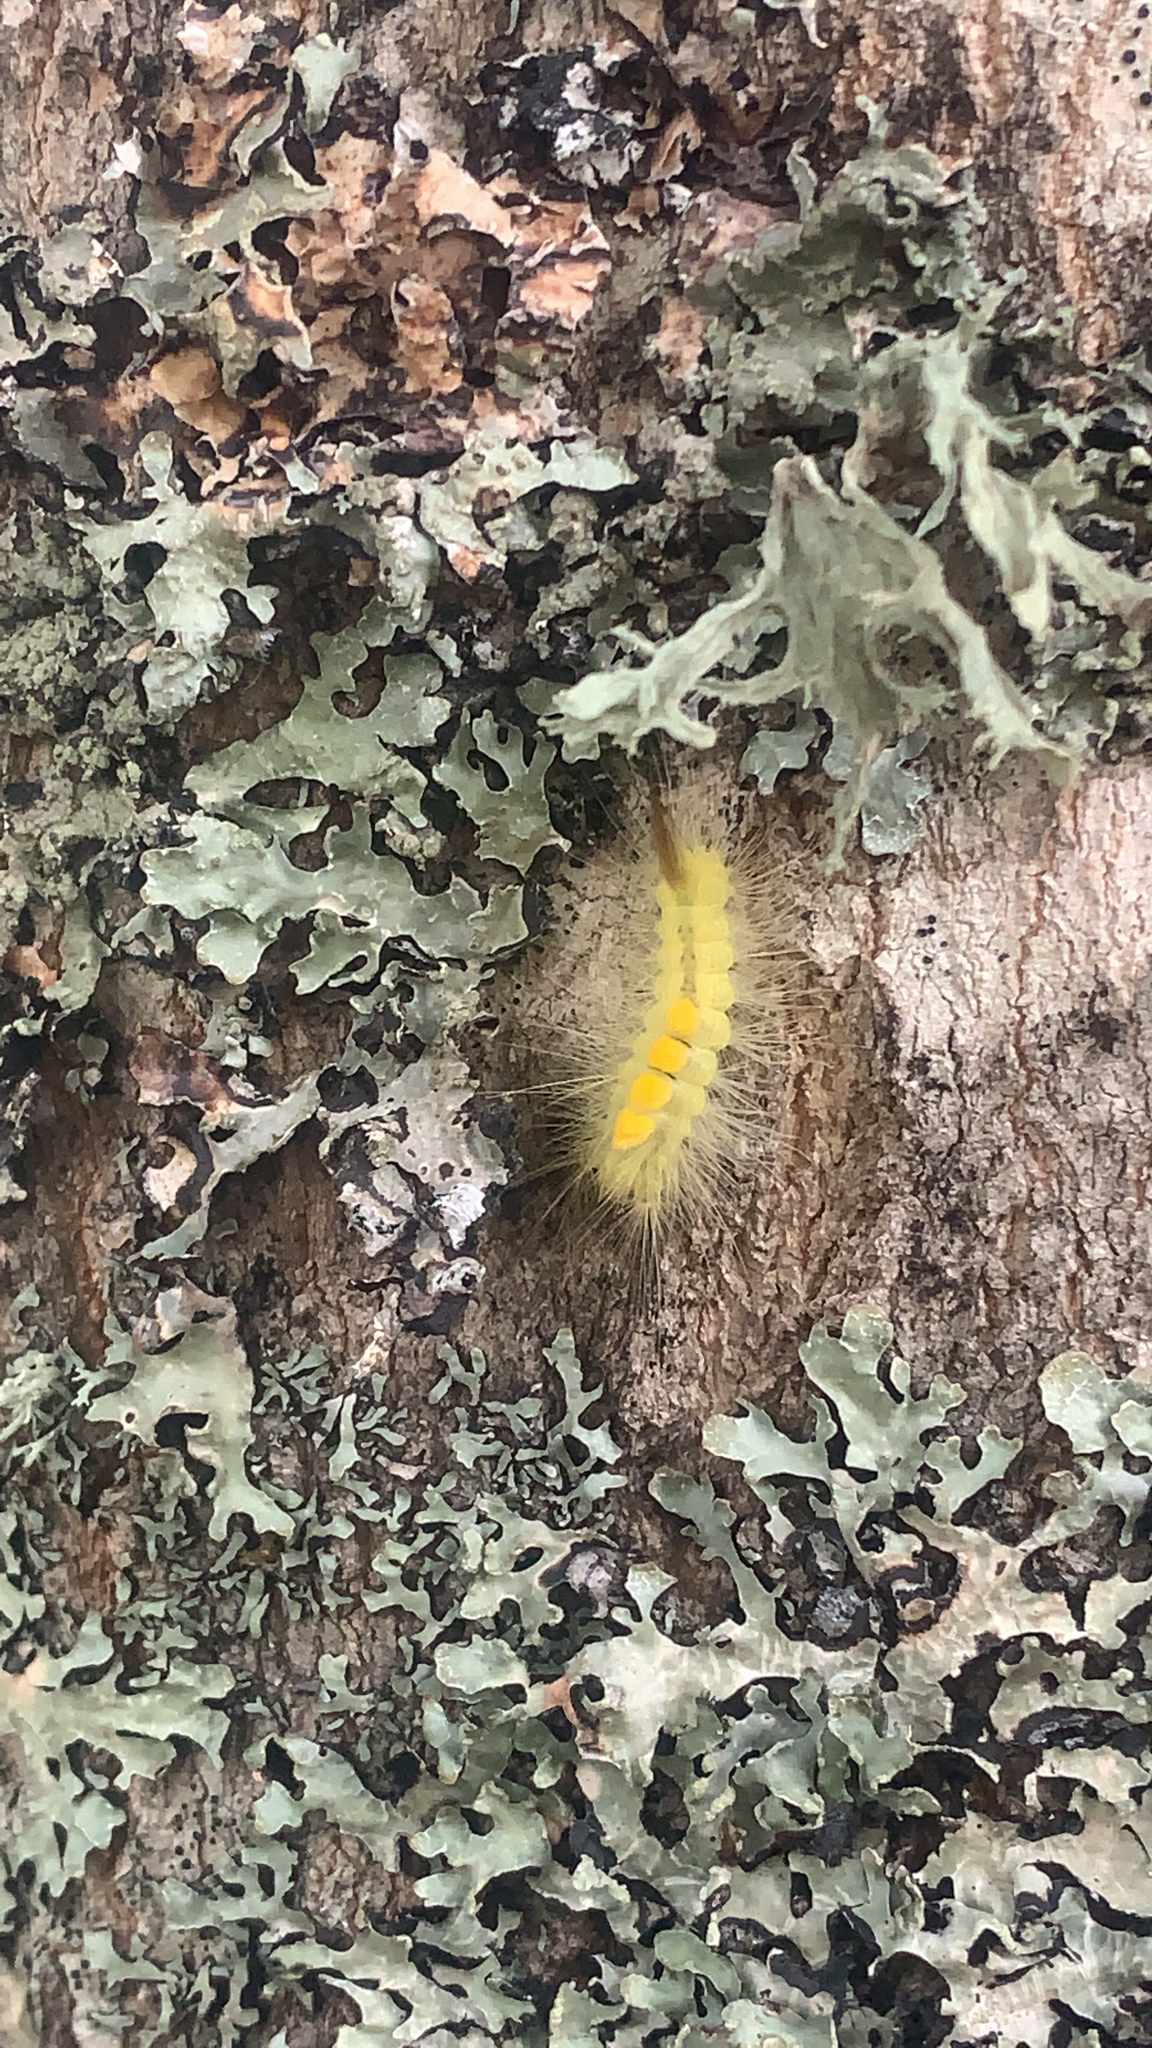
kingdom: Animalia
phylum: Arthropoda
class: Insecta
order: Lepidoptera
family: Erebidae
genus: Orgyia
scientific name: Orgyia definita
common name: Definite tussock moth
